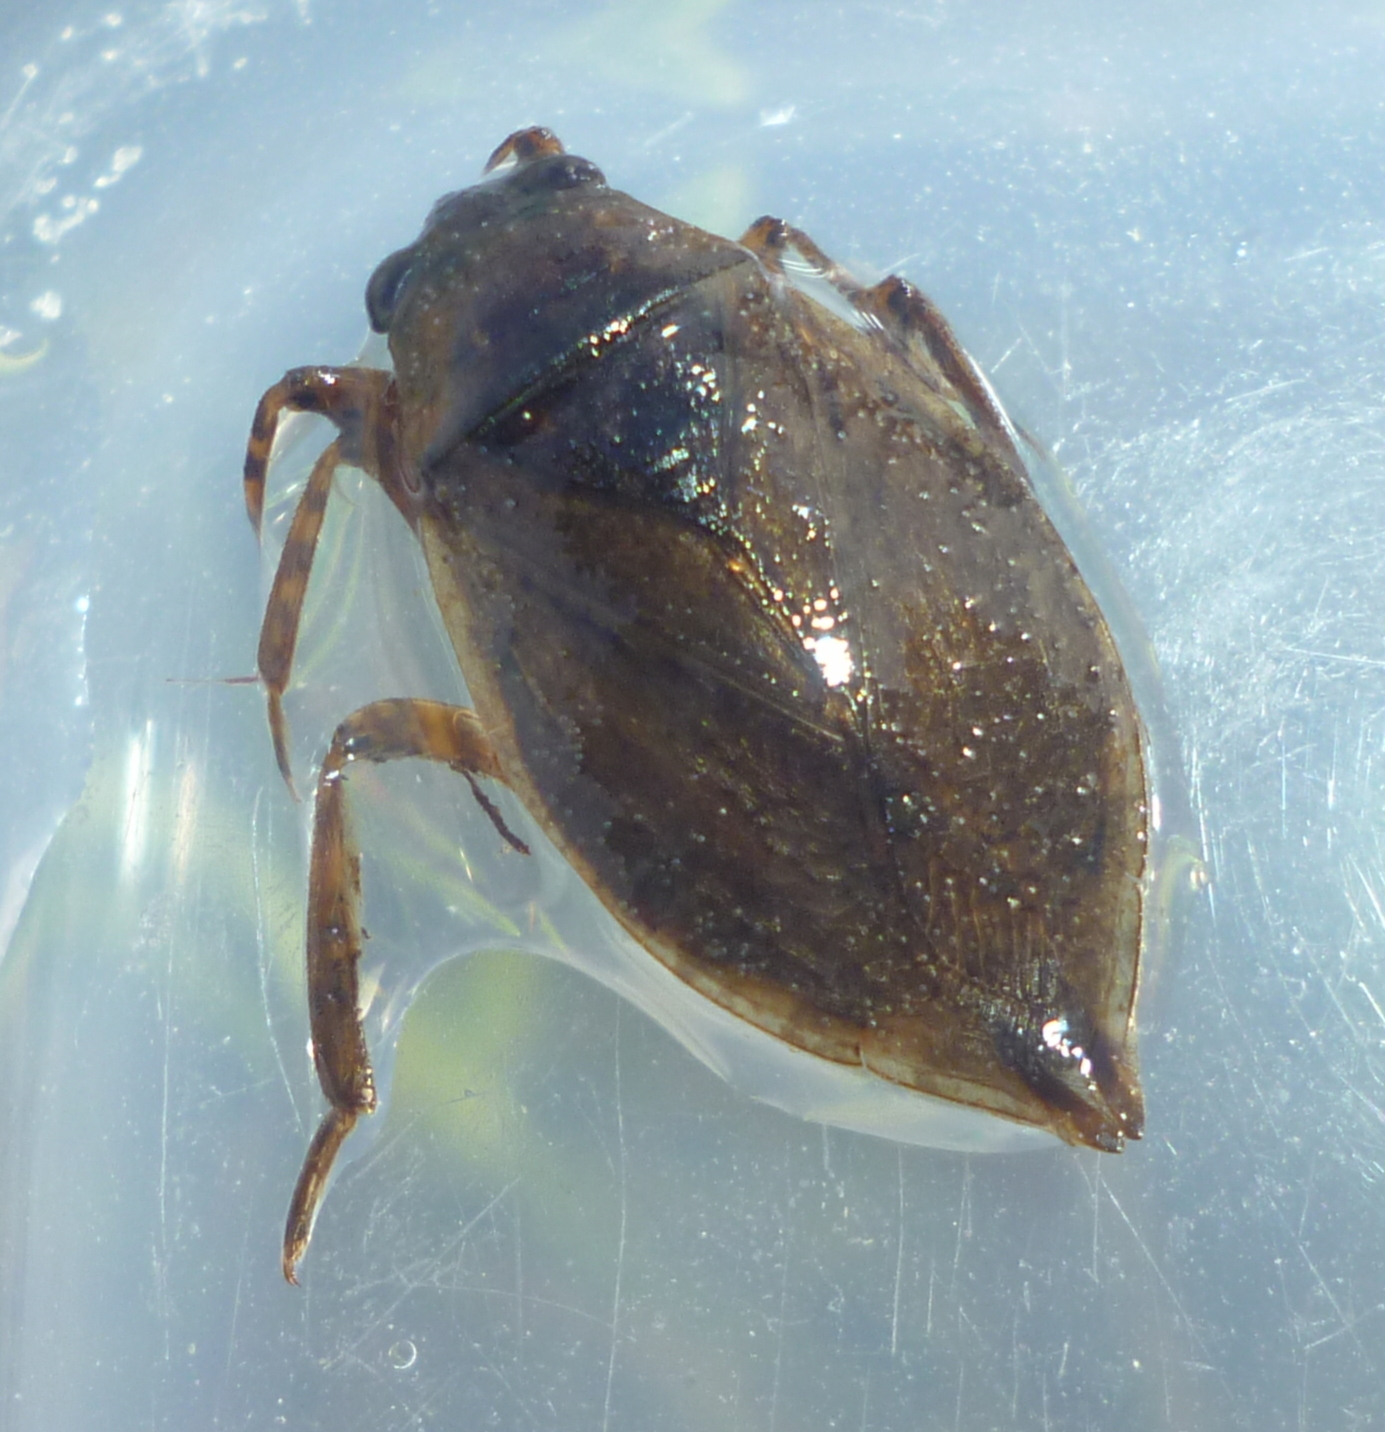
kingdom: Animalia
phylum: Arthropoda
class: Insecta
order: Hemiptera
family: Belostomatidae
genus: Abedus
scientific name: Abedus immaculatus
